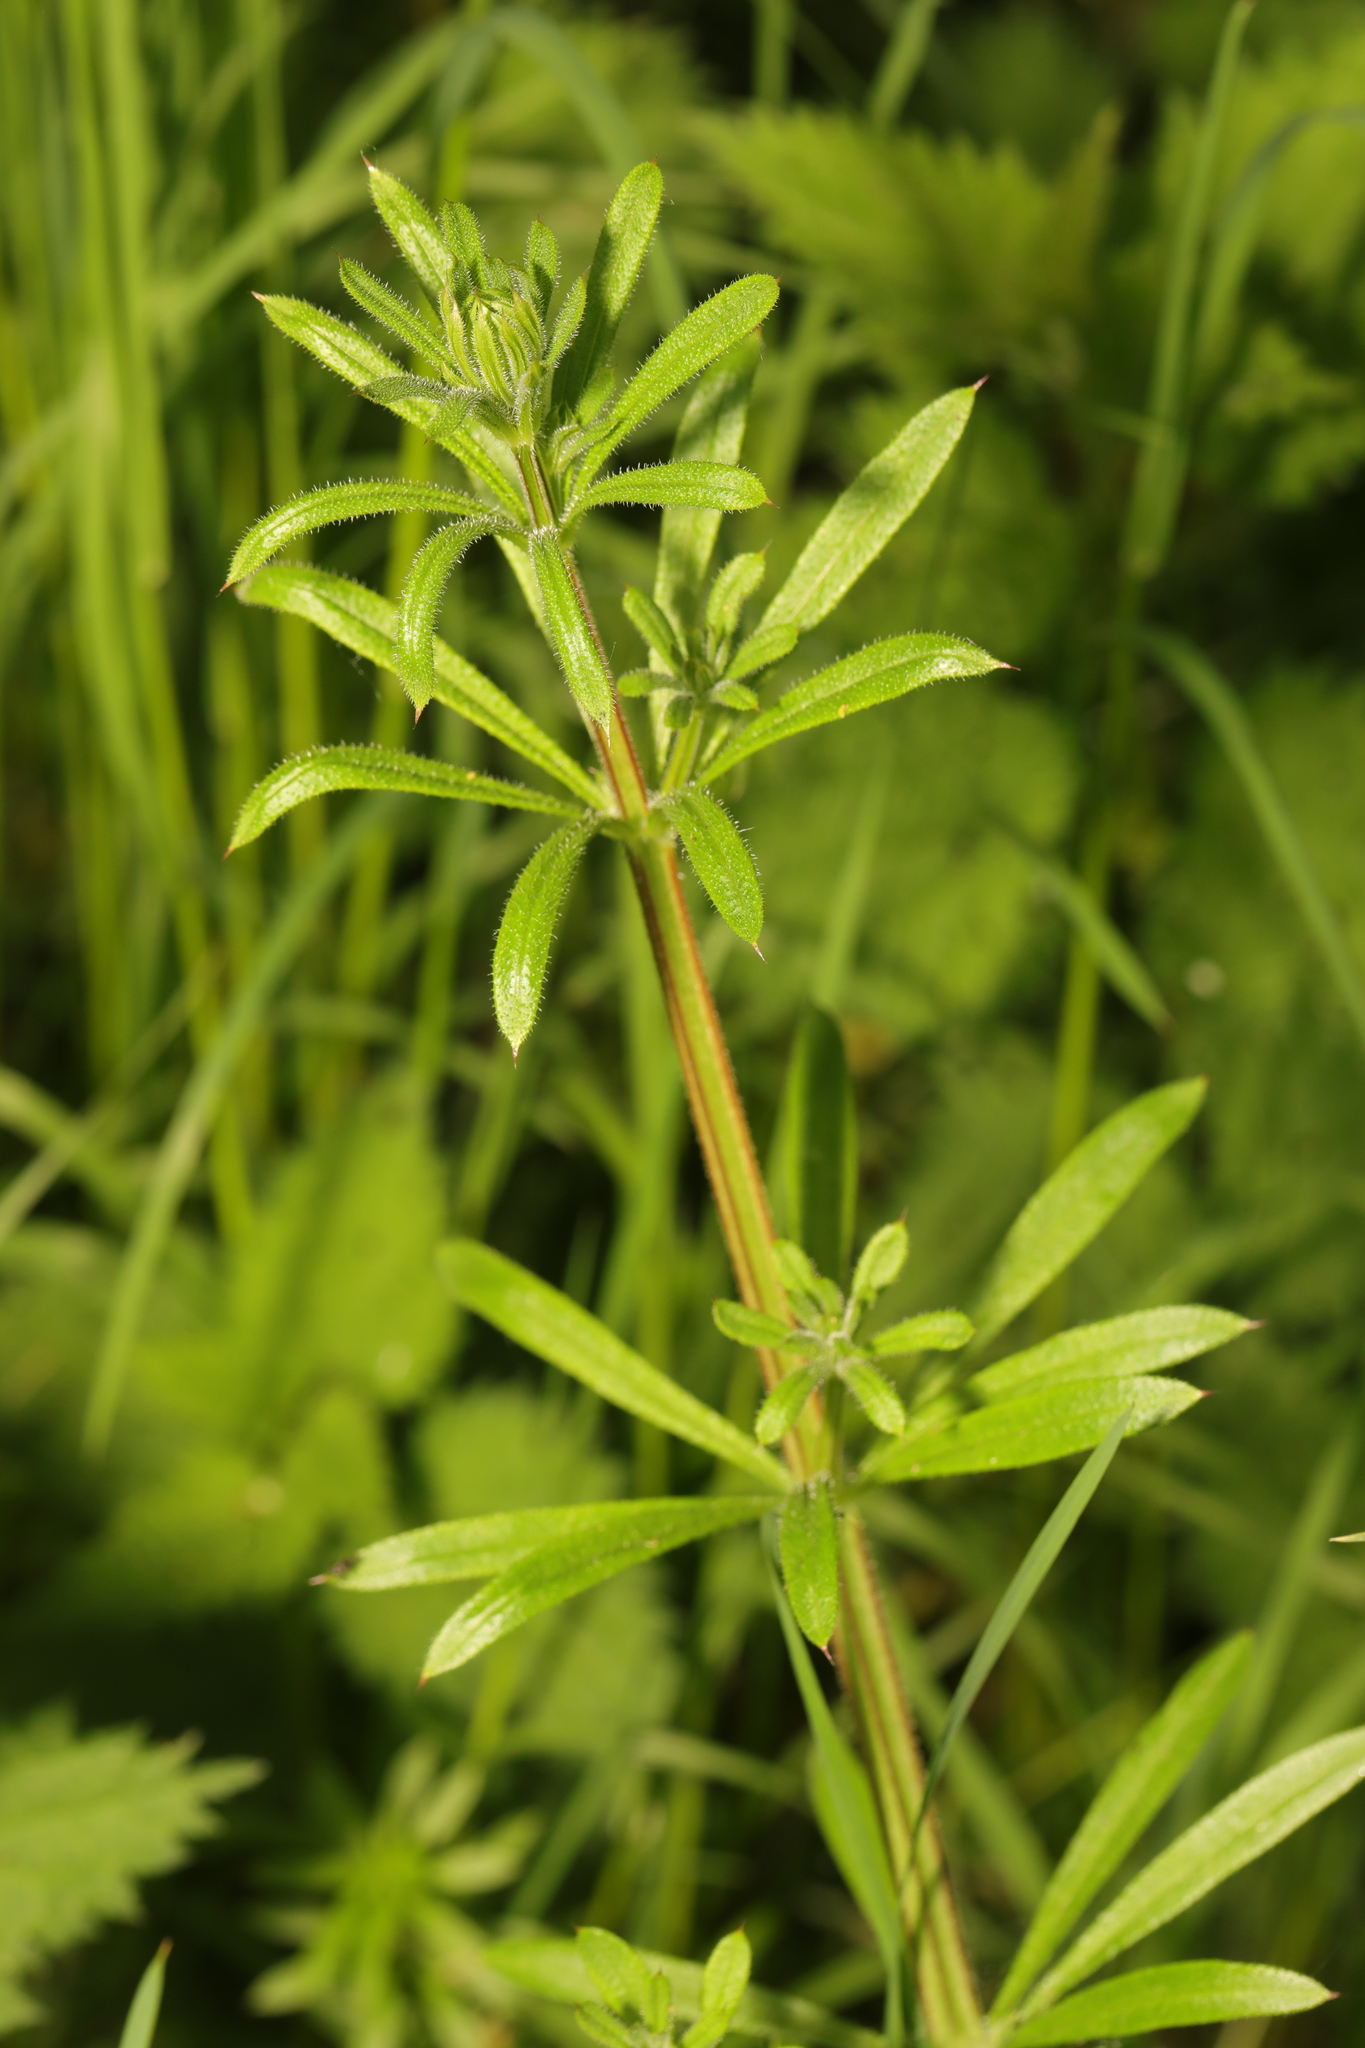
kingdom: Plantae
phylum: Tracheophyta
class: Magnoliopsida
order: Gentianales
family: Rubiaceae
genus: Galium
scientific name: Galium aparine
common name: Cleavers
